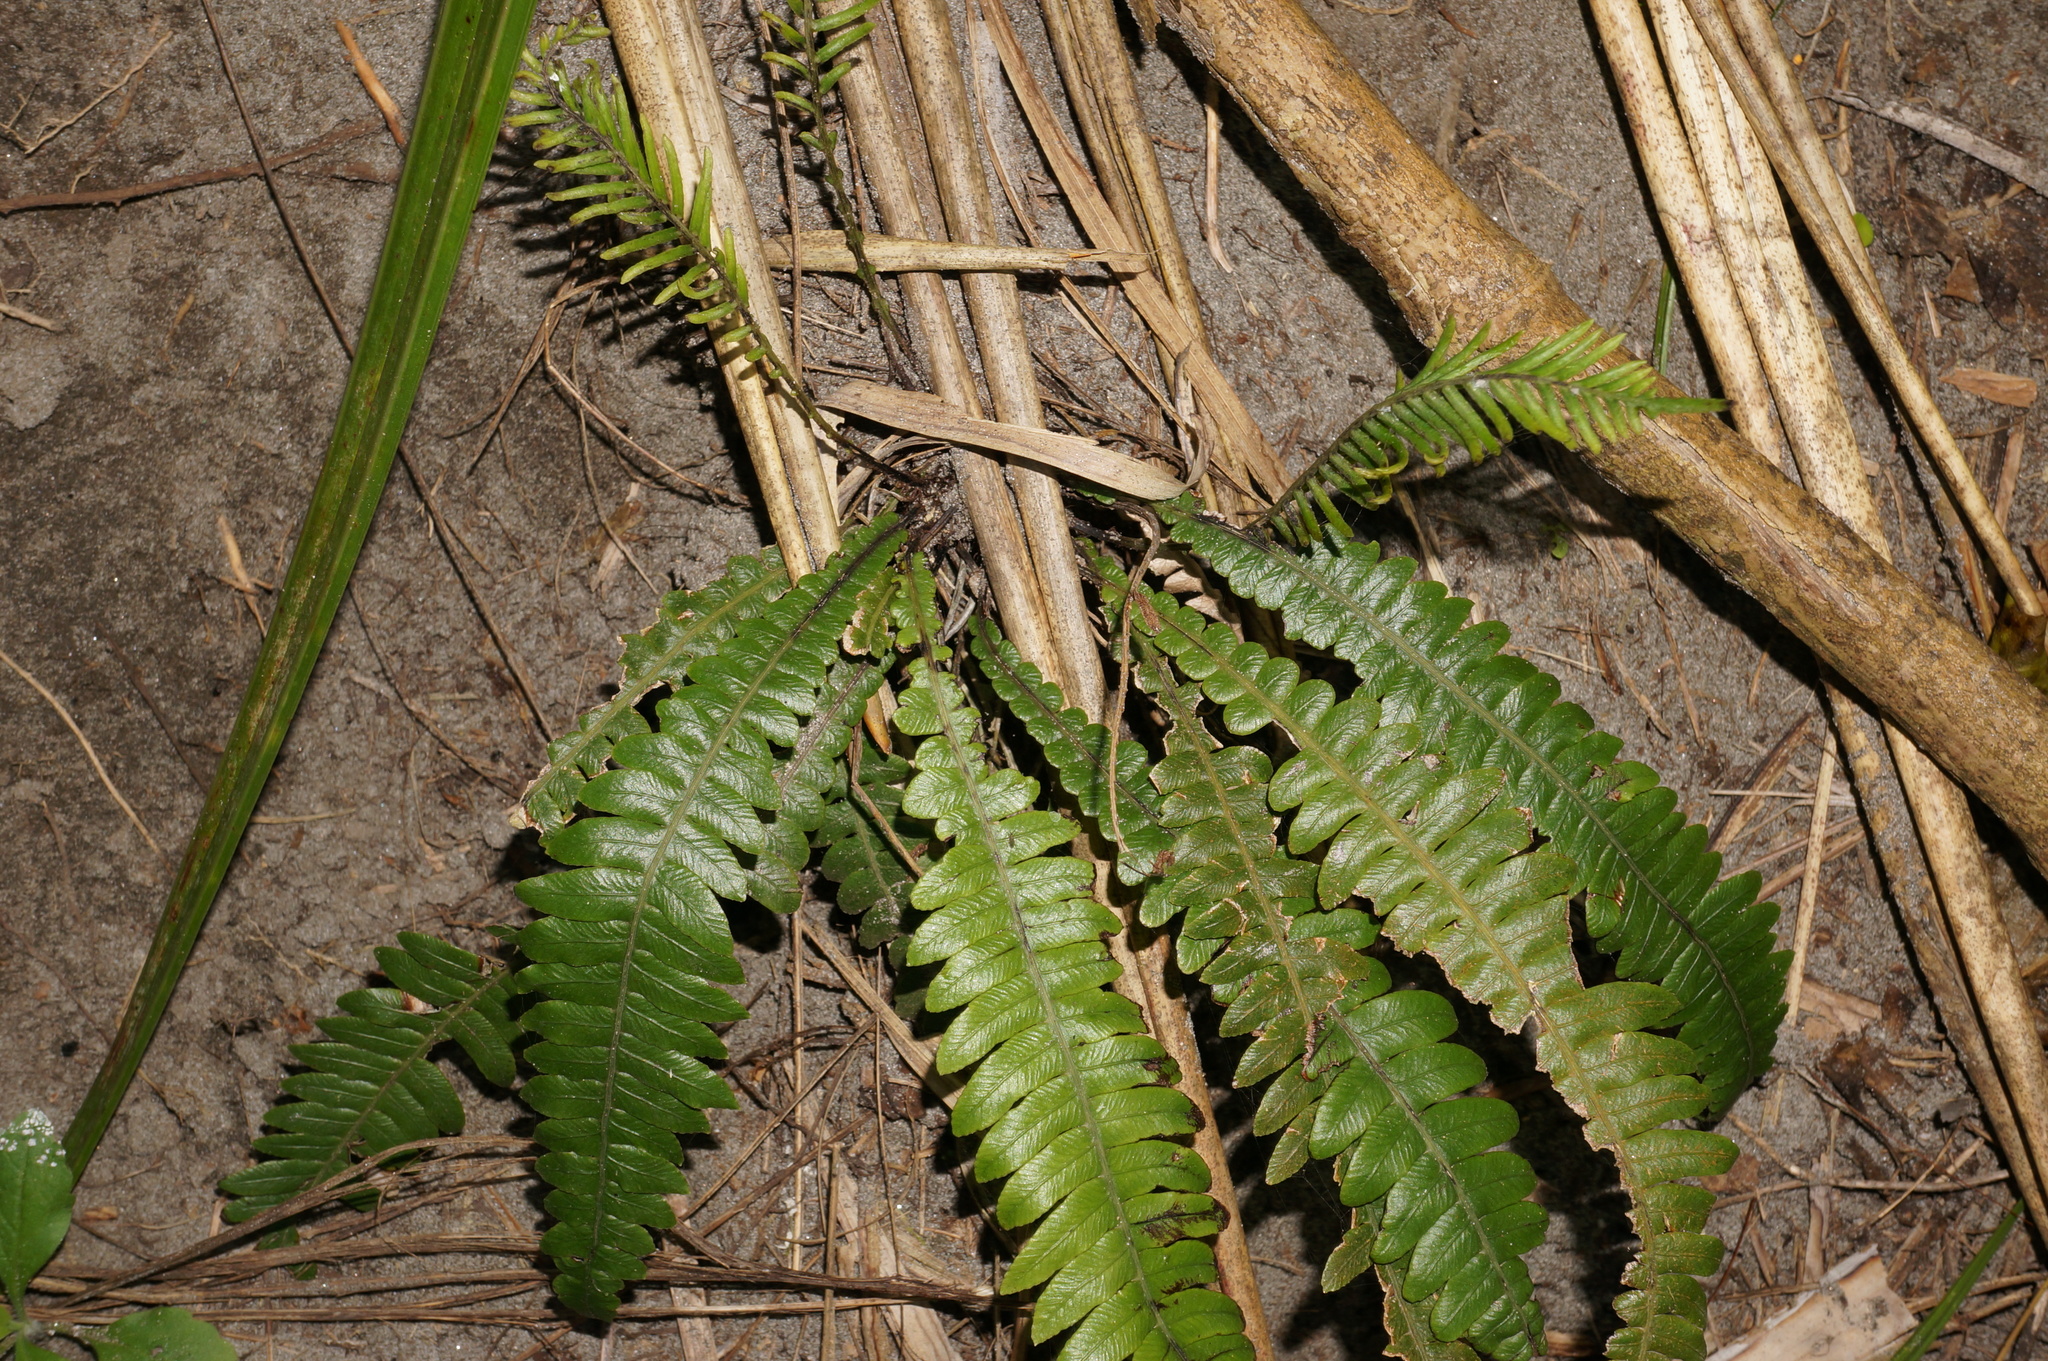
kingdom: Plantae
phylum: Tracheophyta
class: Polypodiopsida
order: Polypodiales
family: Blechnaceae
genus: Austroblechnum
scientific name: Austroblechnum lanceolatum
